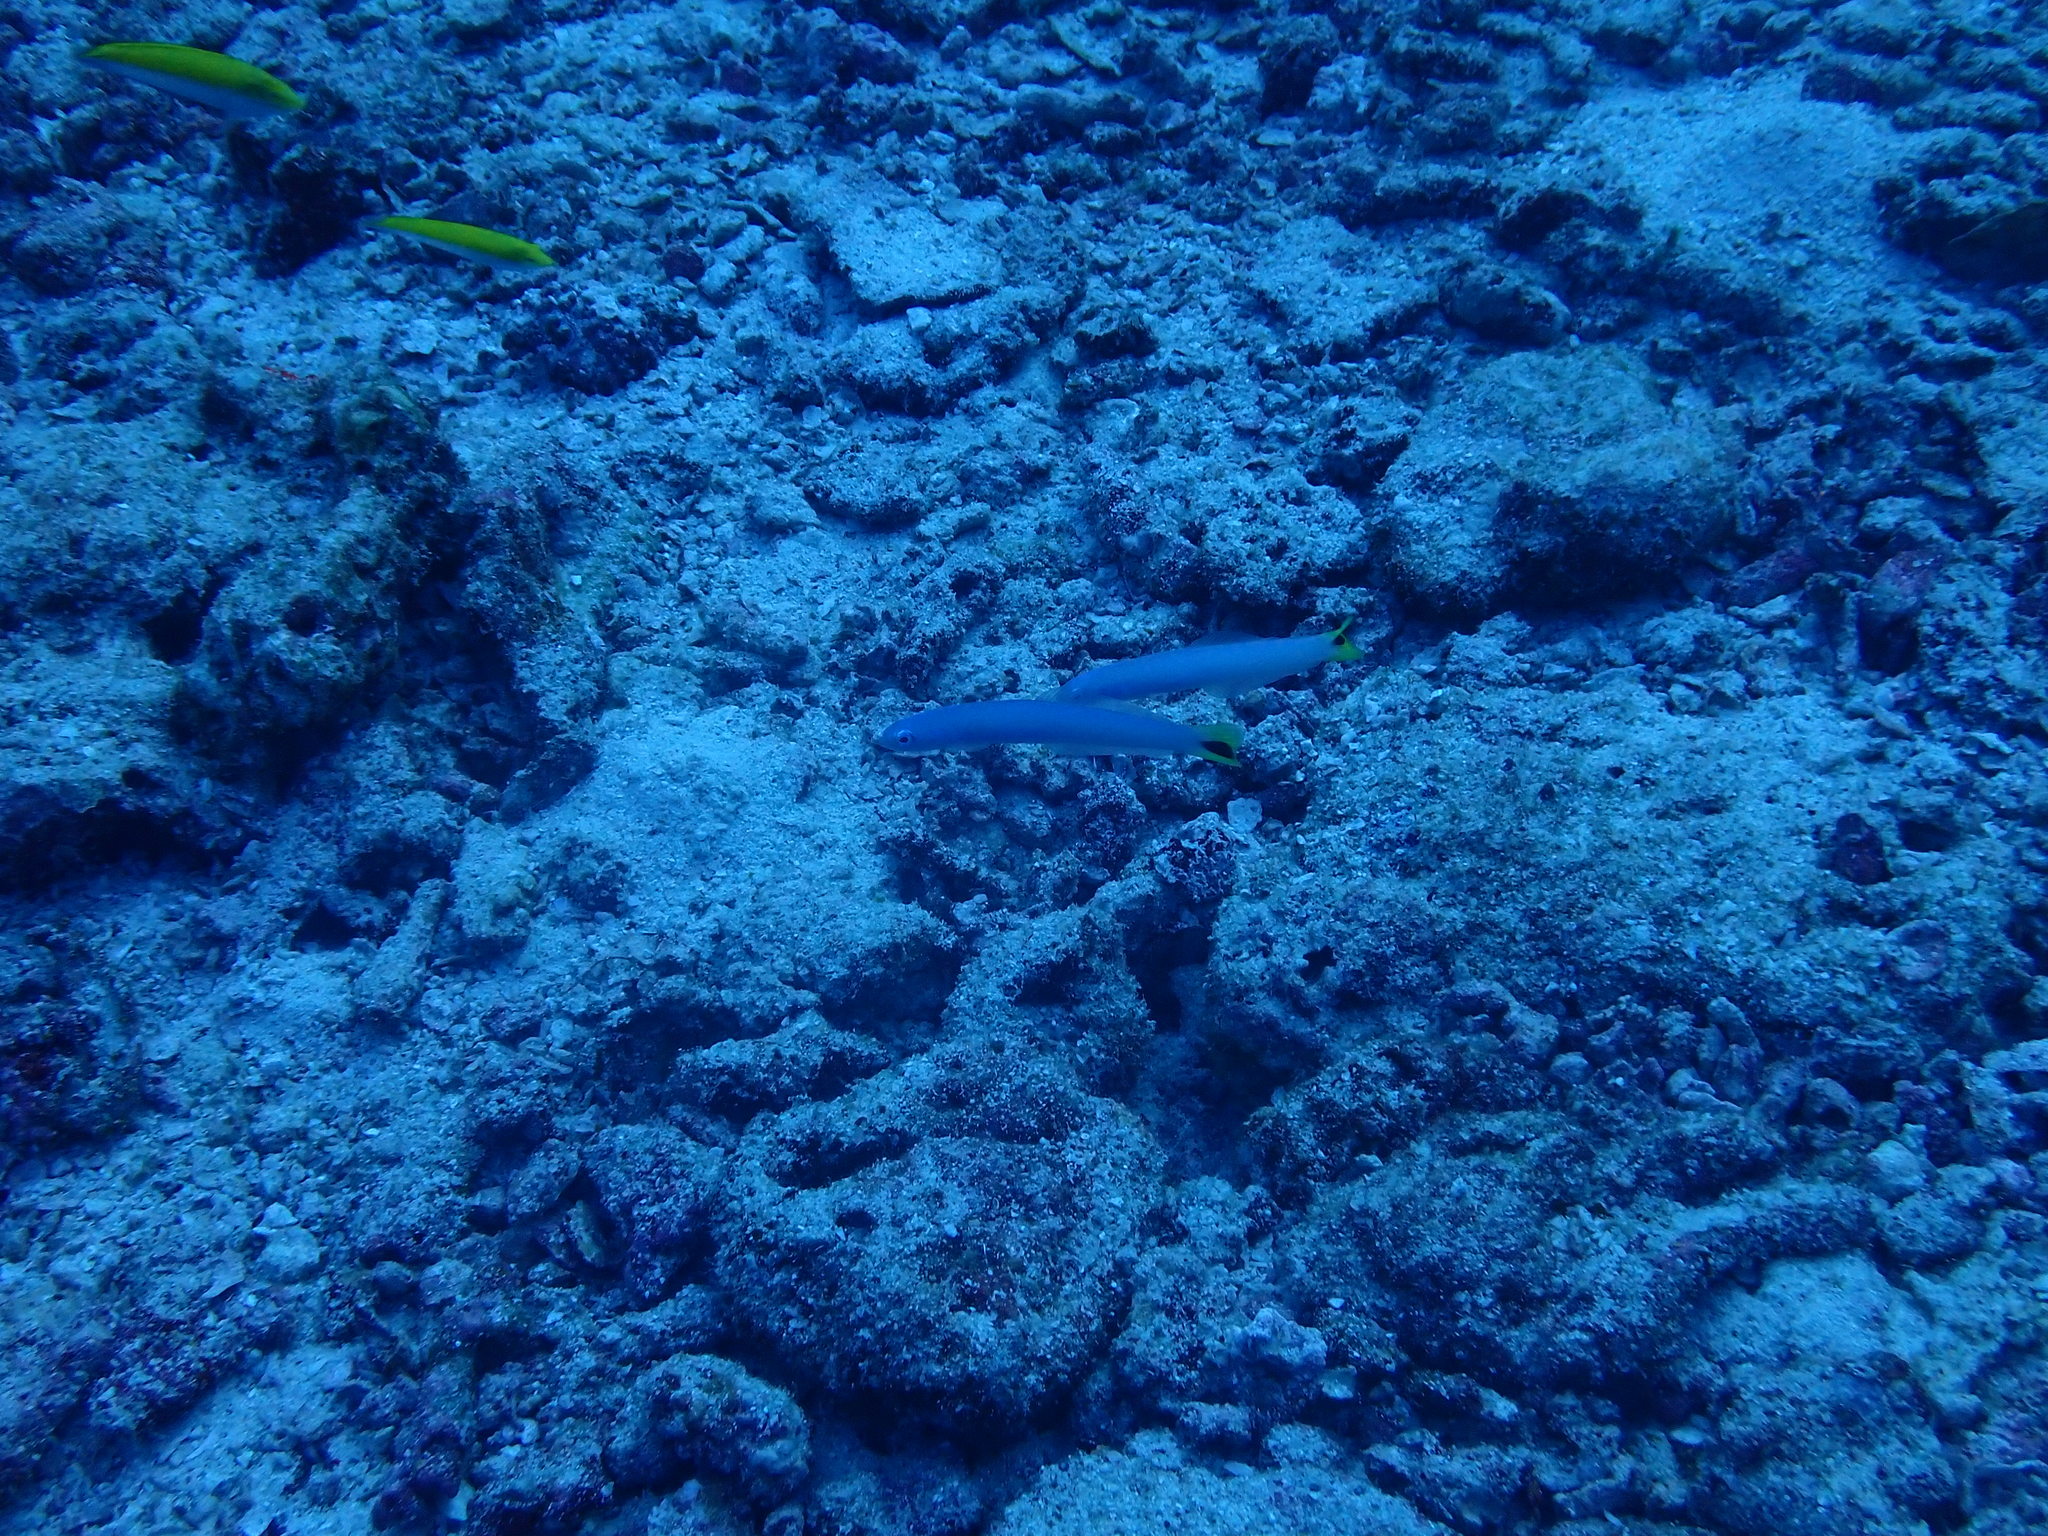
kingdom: Animalia
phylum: Chordata
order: Perciformes
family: Microdesmidae
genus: Ptereleotris
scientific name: Ptereleotris heteroptera
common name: Blacktail goby
